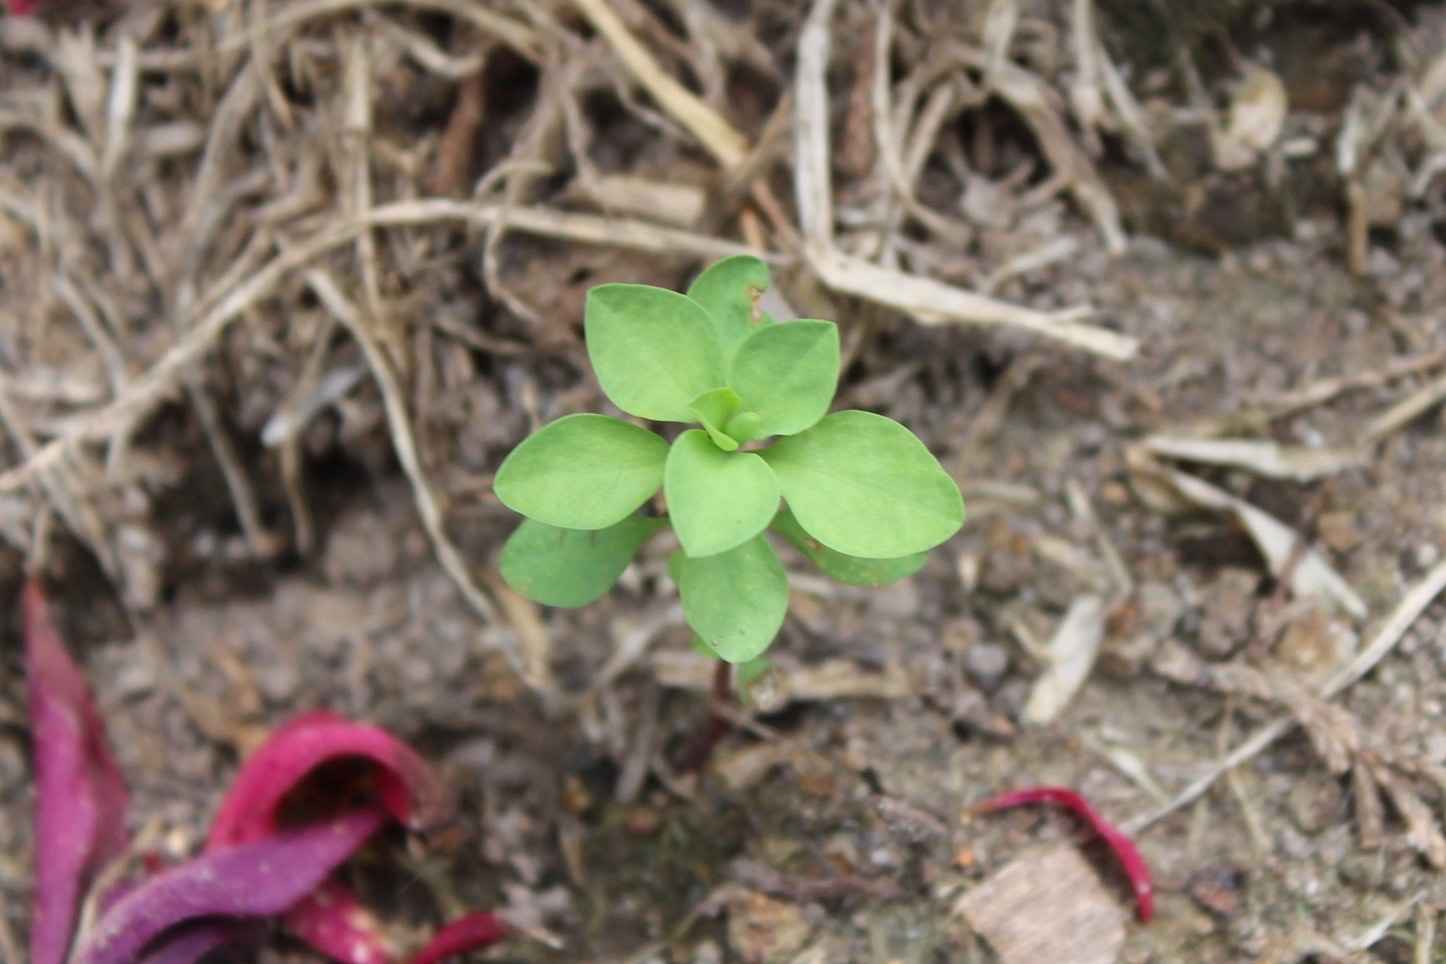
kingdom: Plantae
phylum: Tracheophyta
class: Magnoliopsida
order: Malpighiales
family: Euphorbiaceae
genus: Euphorbia
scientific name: Euphorbia peplus
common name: Petty spurge
